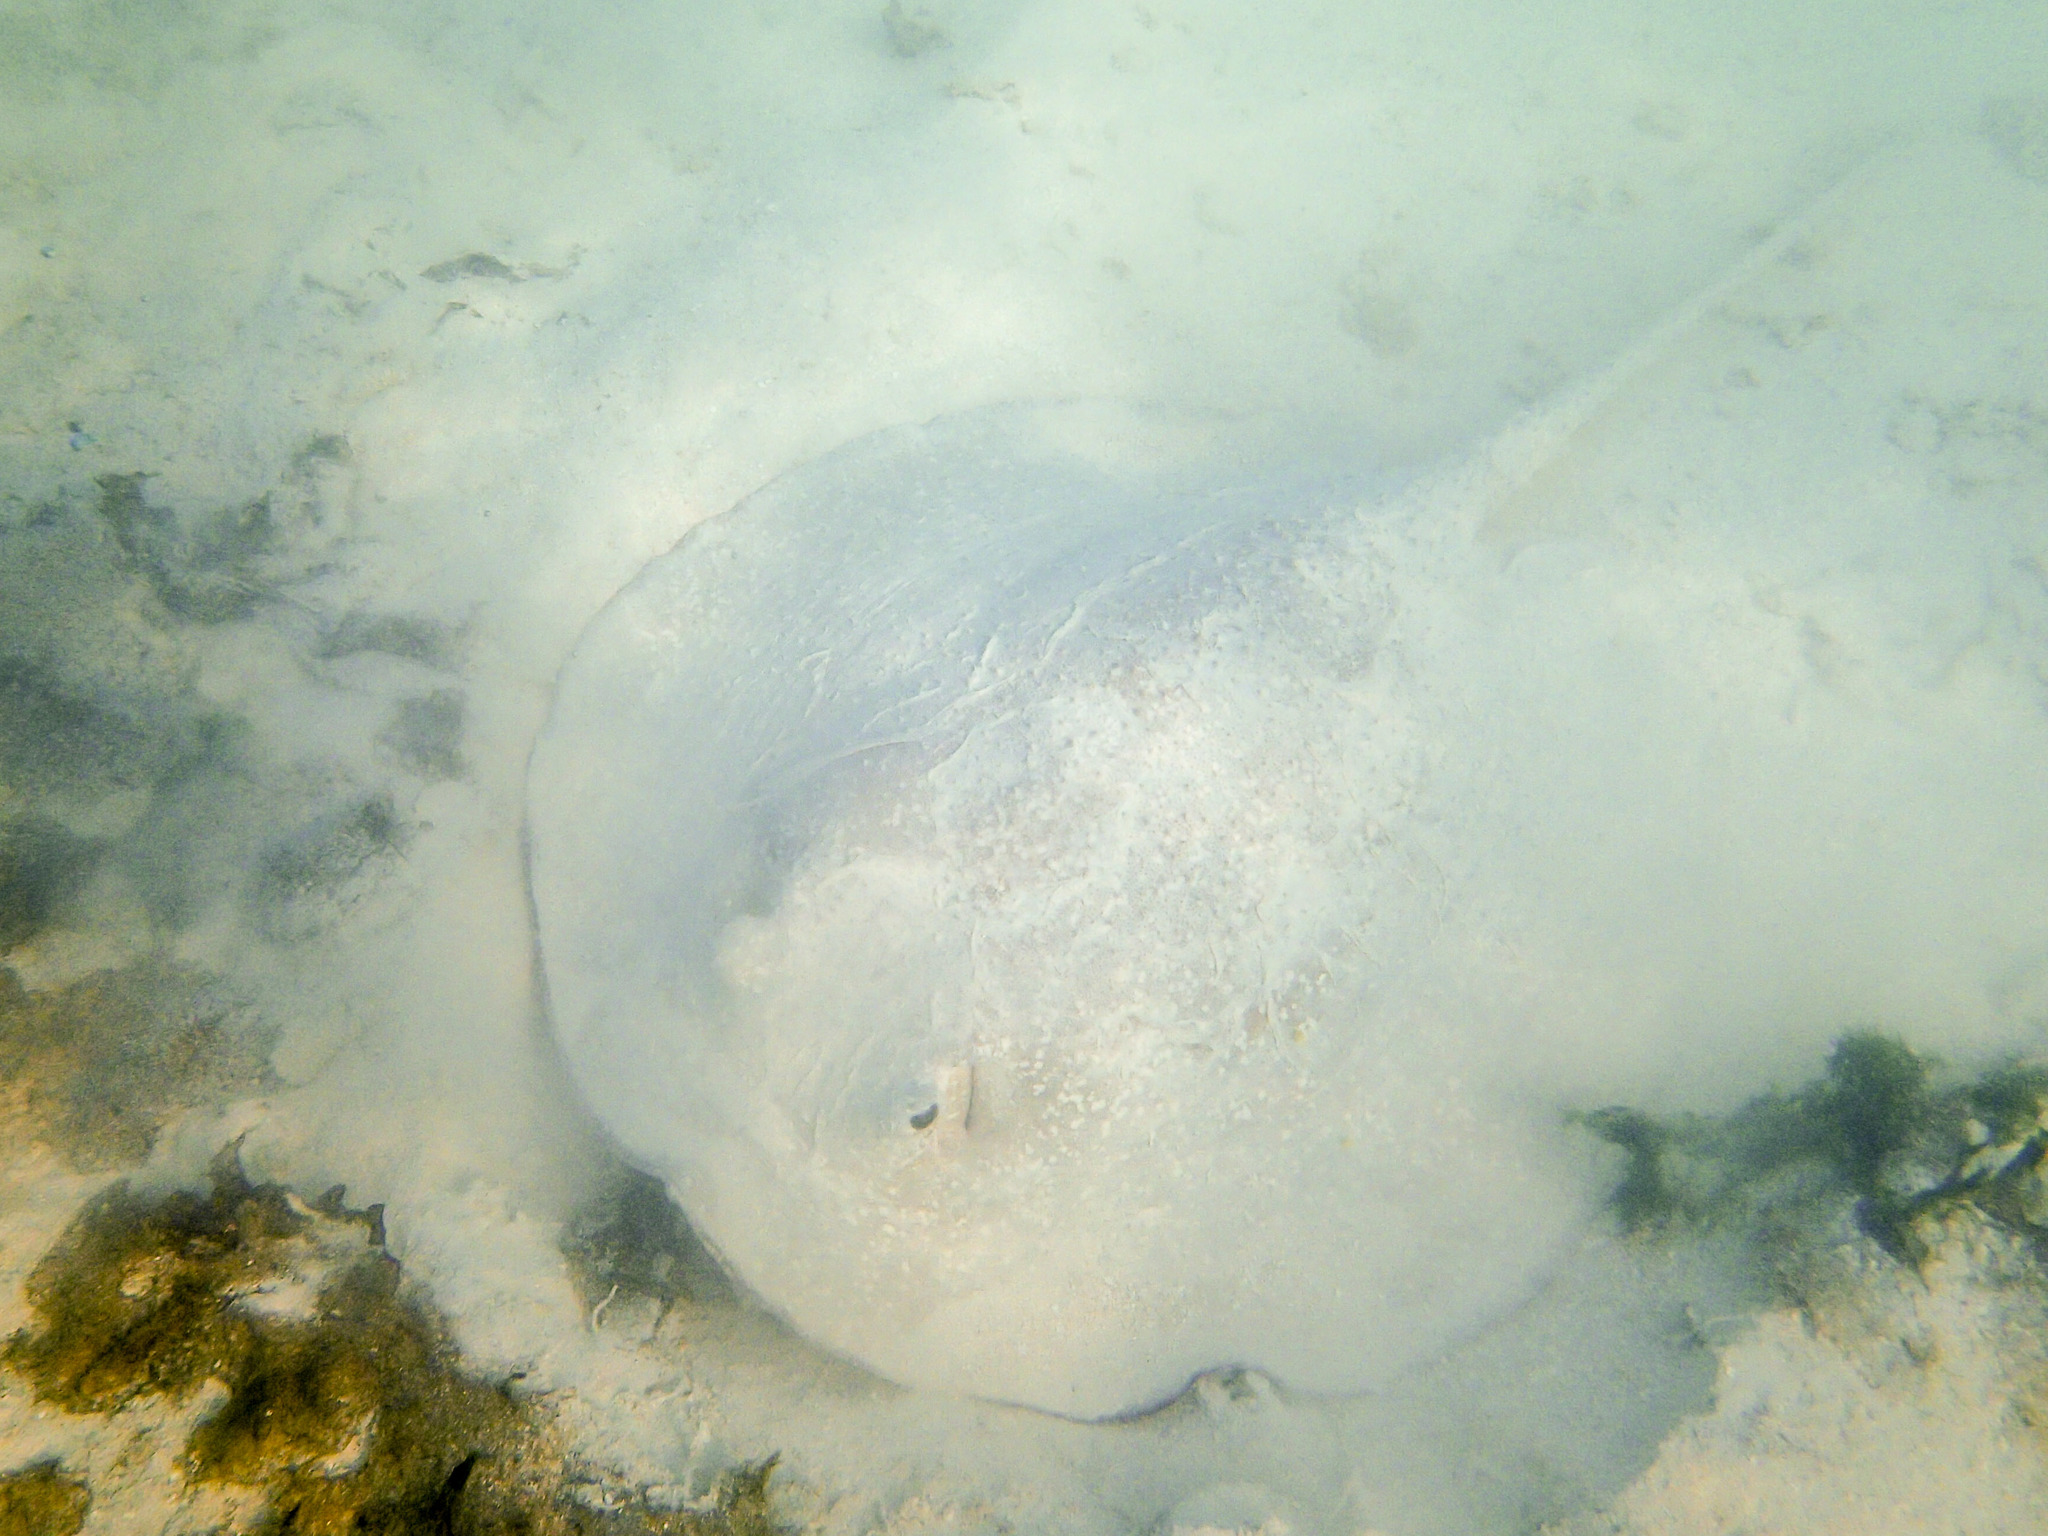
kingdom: Animalia
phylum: Chordata
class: Elasmobranchii
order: Myliobatiformes
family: Dasyatidae
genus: Urogymnus
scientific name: Urogymnus asperrimus
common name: Porcupine ray
